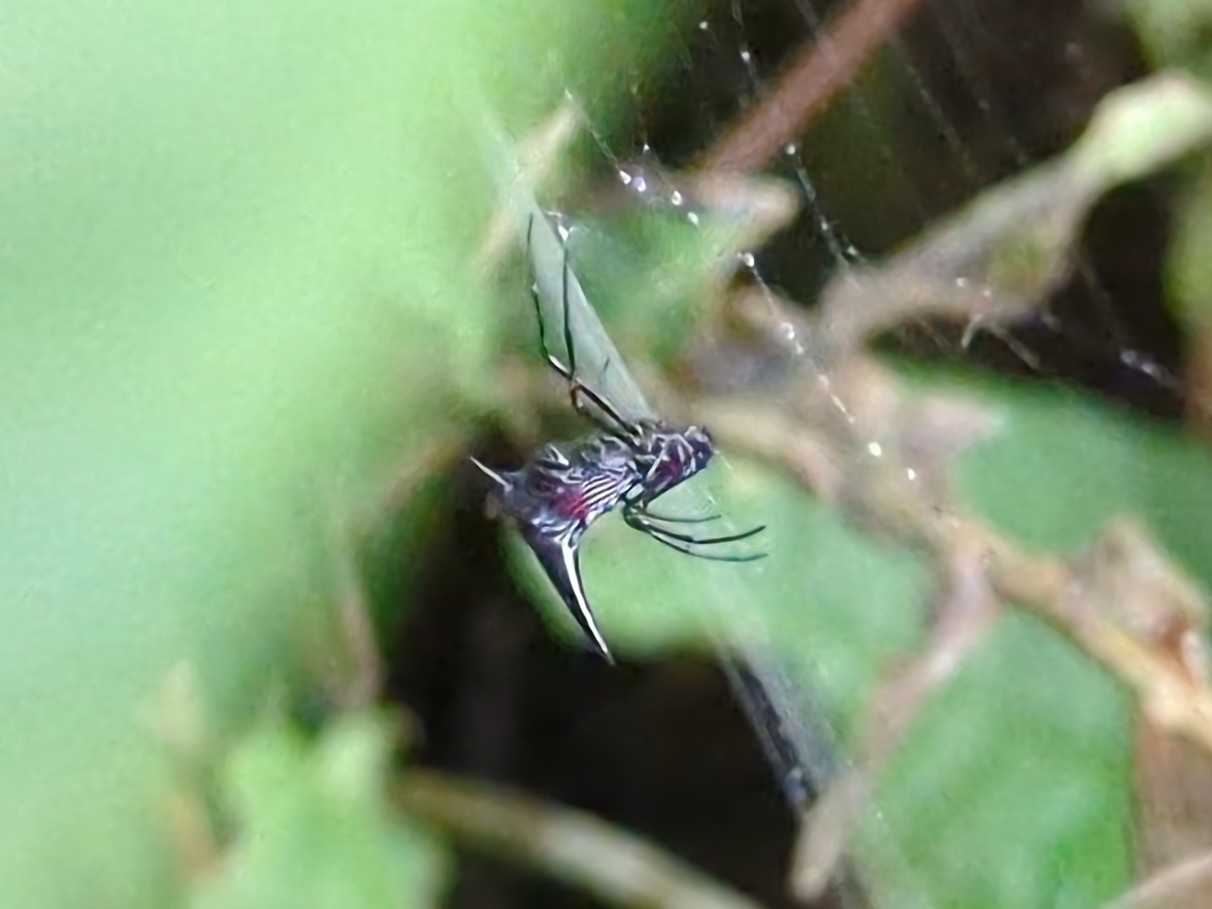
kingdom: Animalia
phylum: Arthropoda
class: Arachnida
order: Araneae
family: Araneidae
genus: Micrathena
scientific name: Micrathena pilaton
